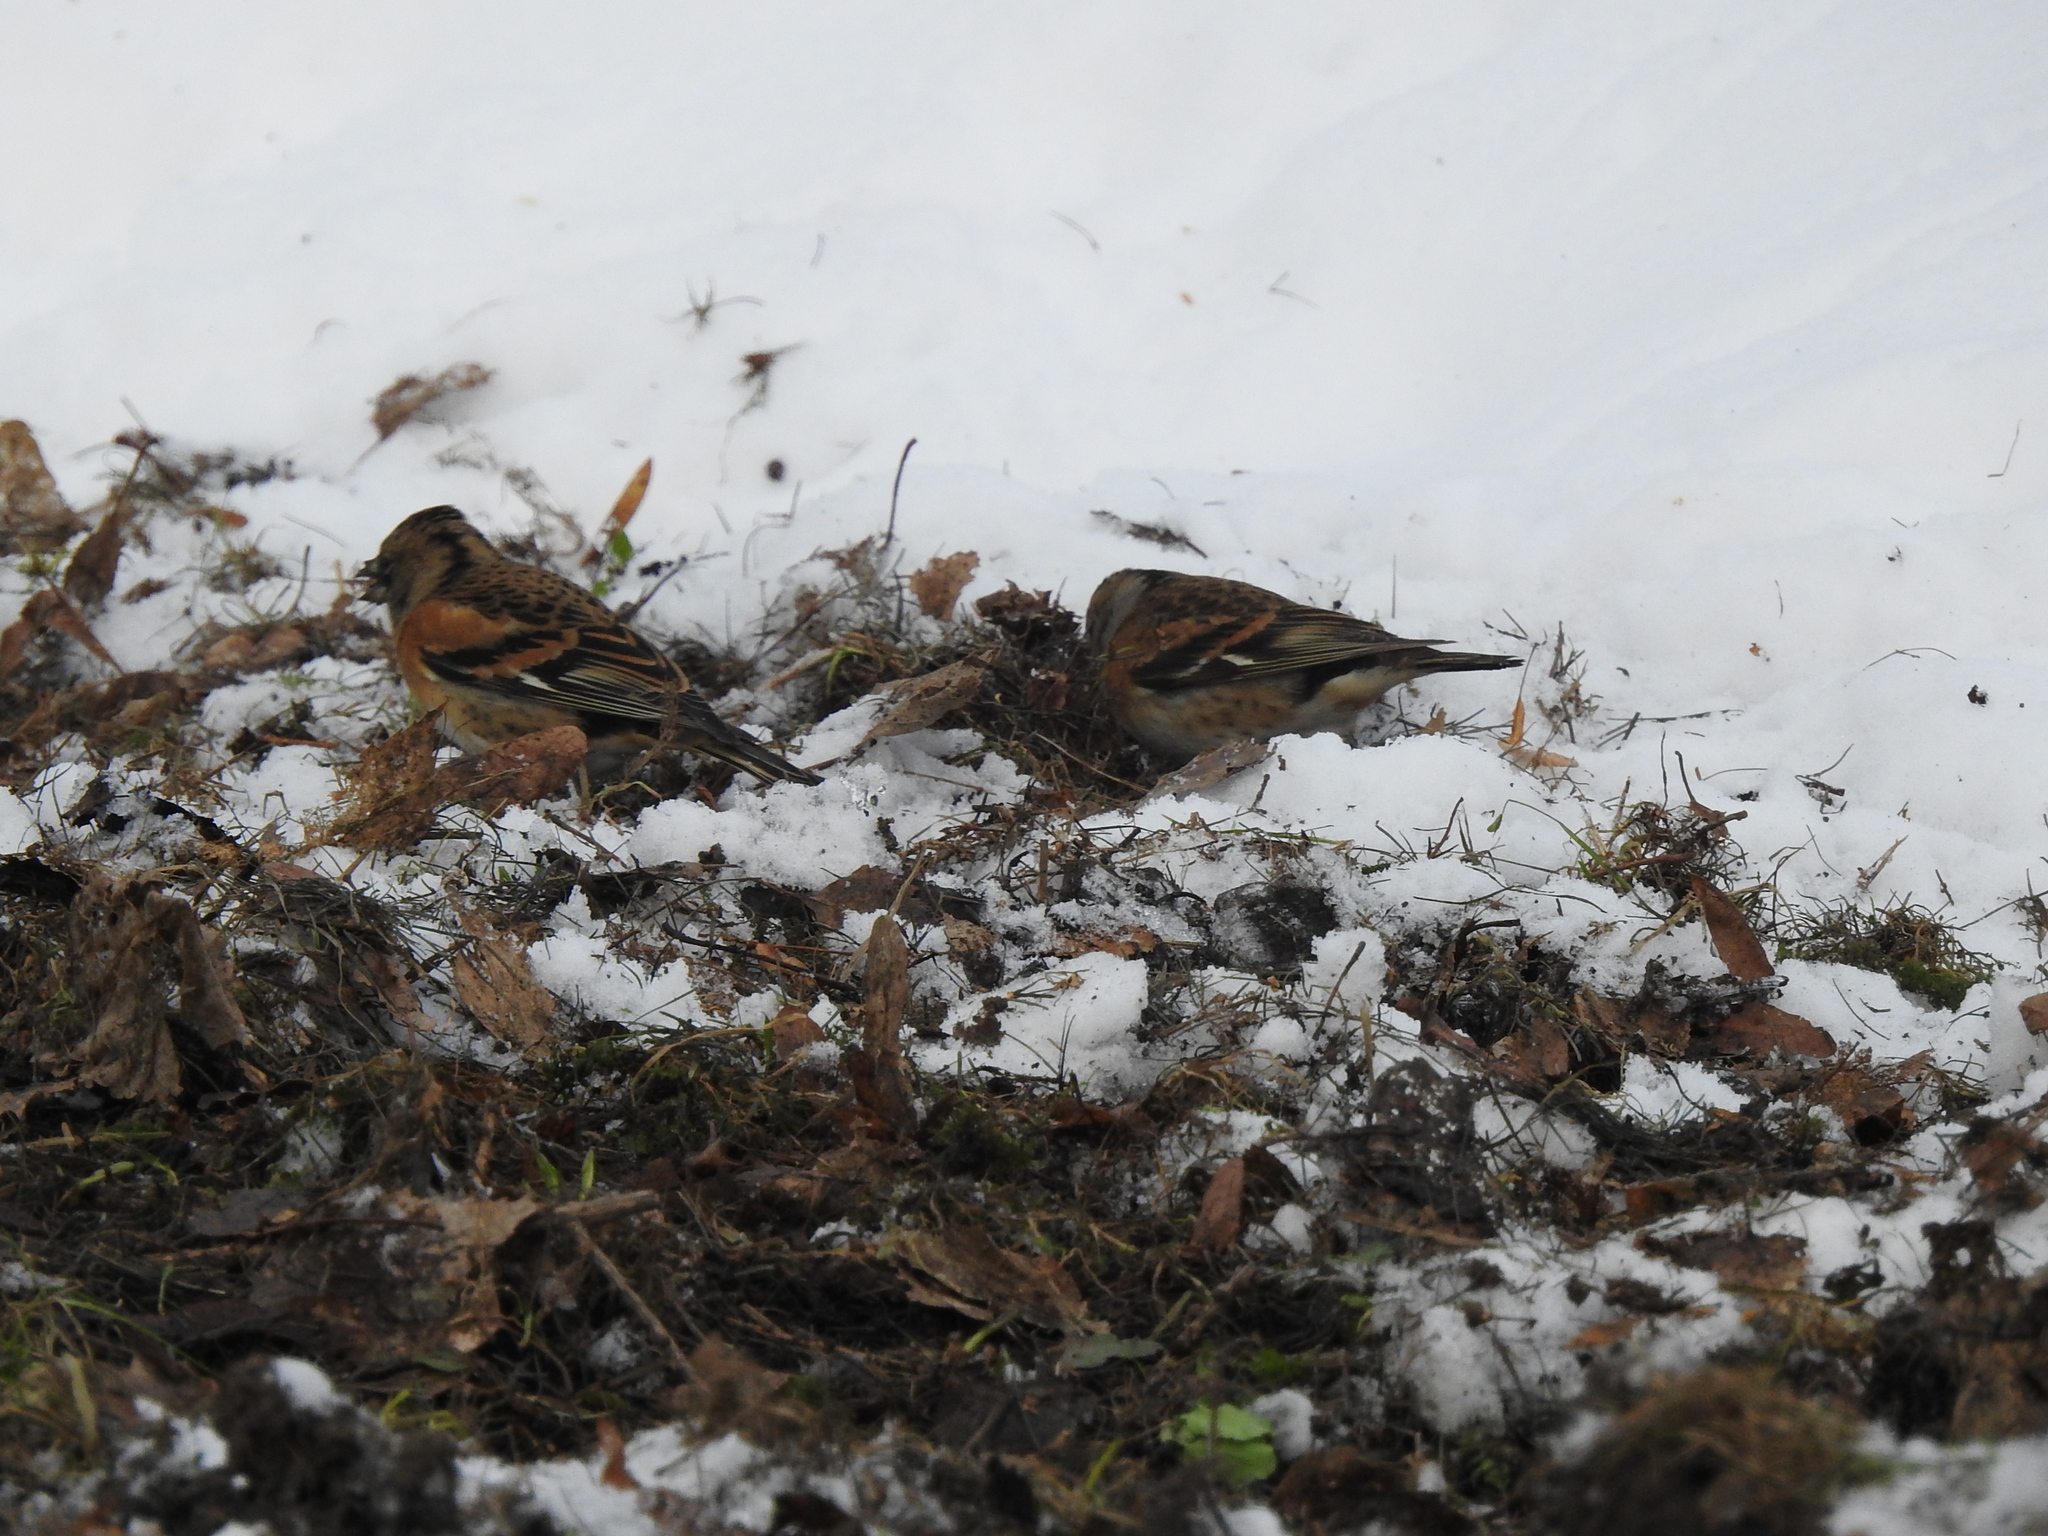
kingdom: Animalia
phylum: Chordata
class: Aves
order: Passeriformes
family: Fringillidae
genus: Fringilla
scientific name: Fringilla montifringilla
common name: Brambling
